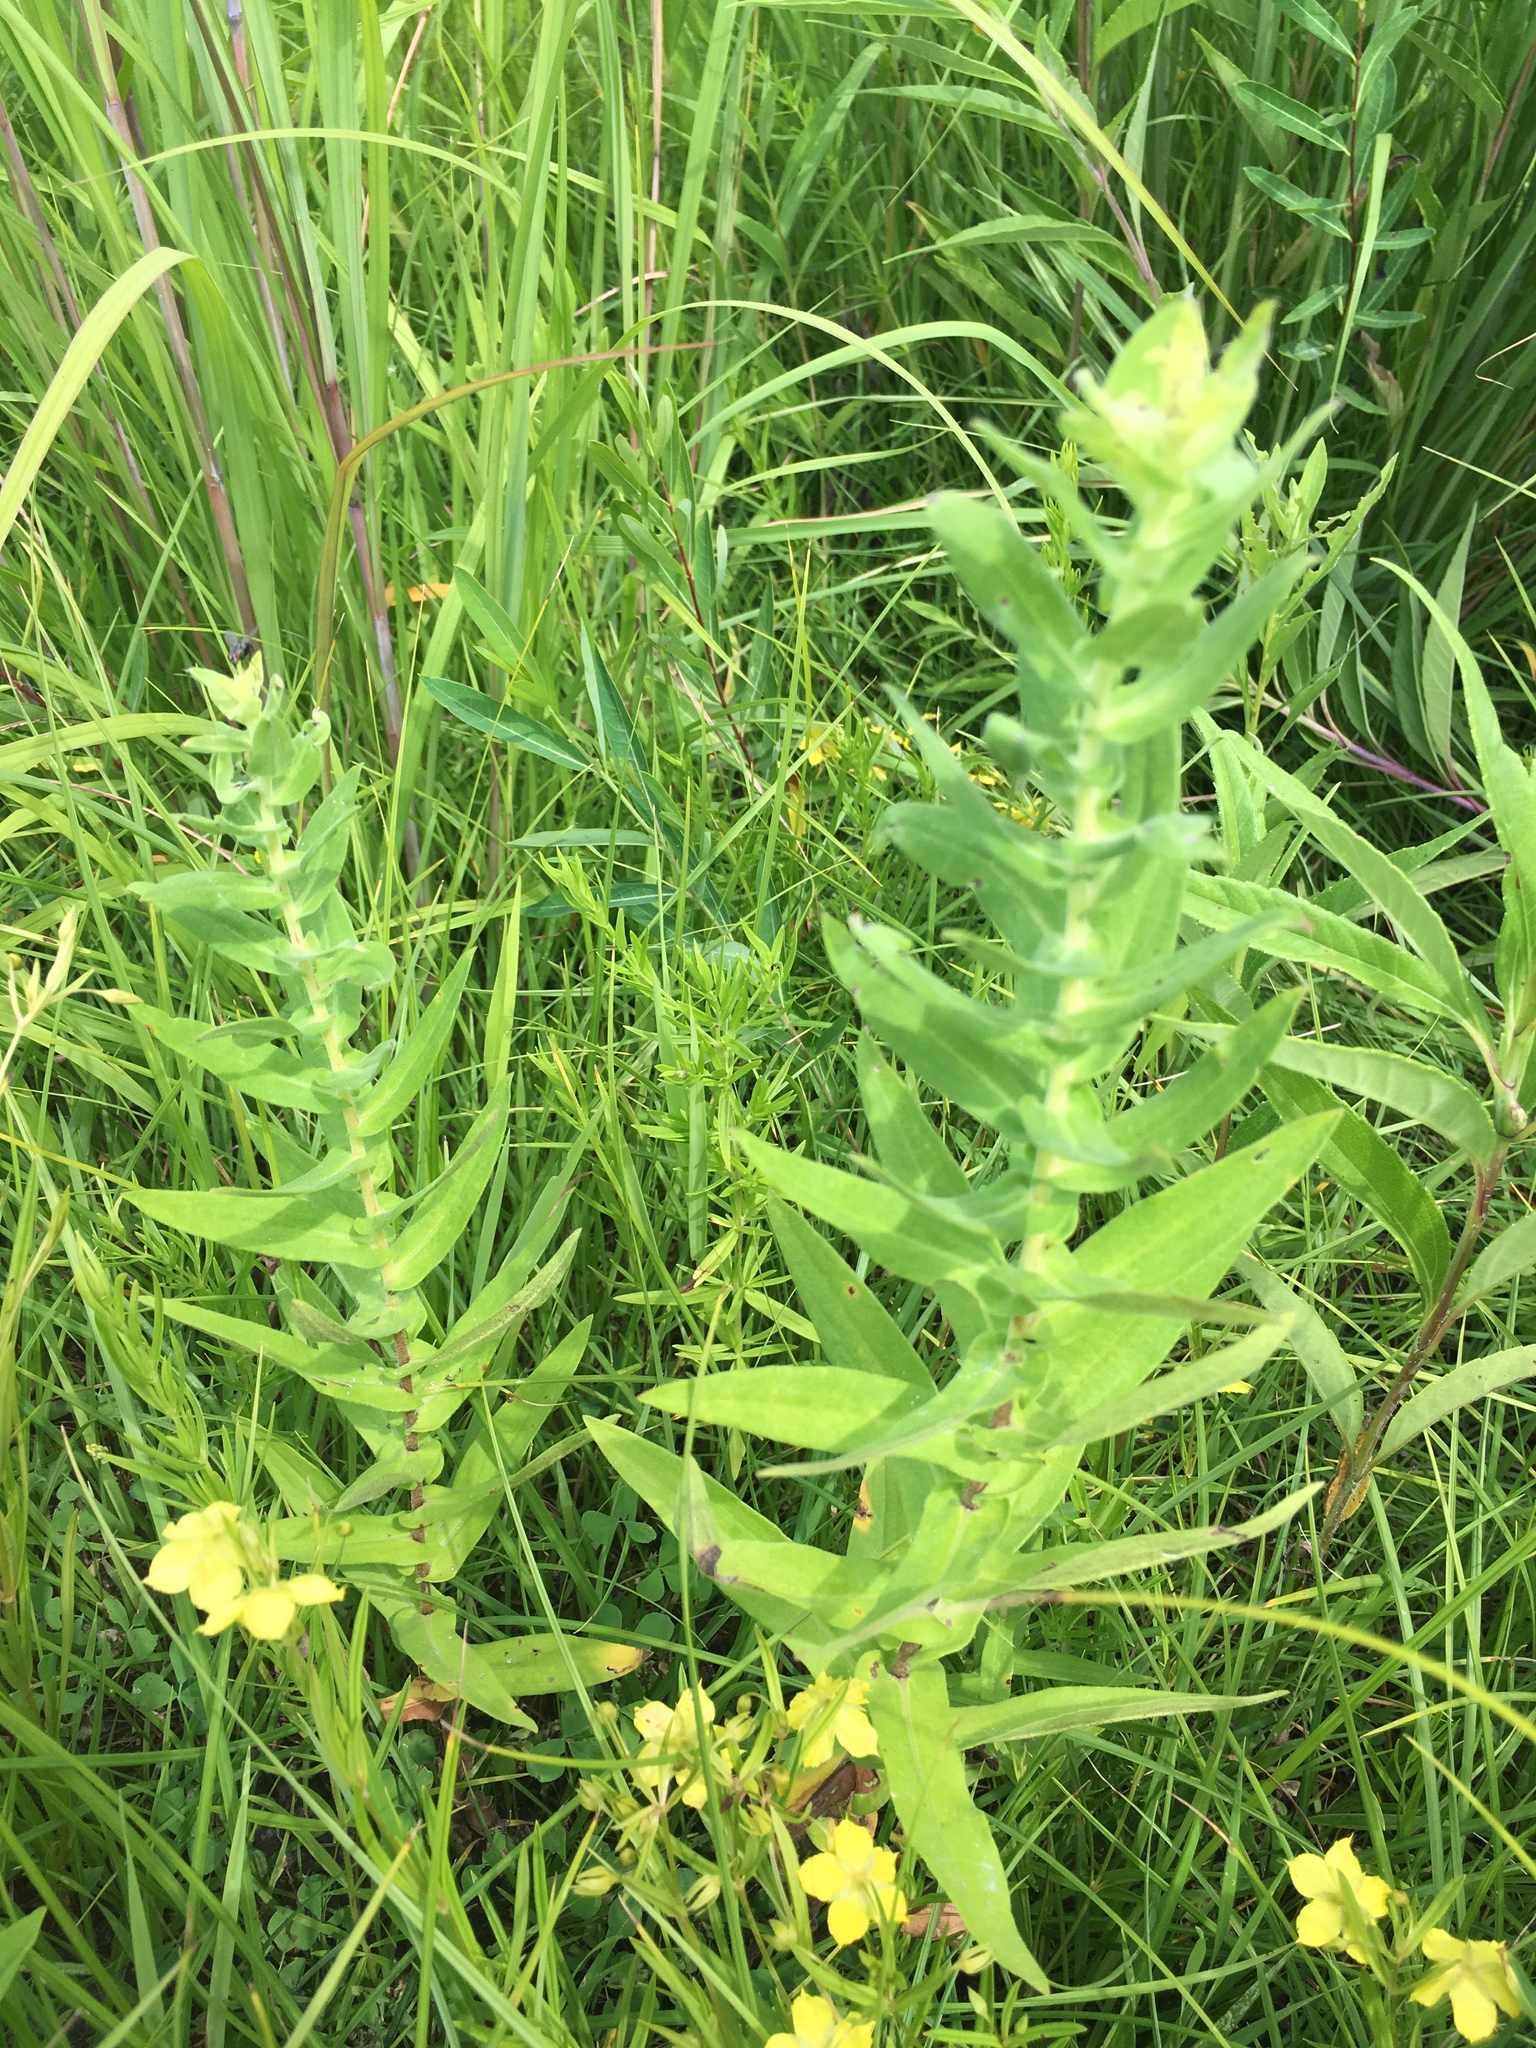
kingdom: Plantae
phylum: Tracheophyta
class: Magnoliopsida
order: Asterales
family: Asteraceae
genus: Symphyotrichum
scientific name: Symphyotrichum novae-angliae
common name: Michaelmas daisy
